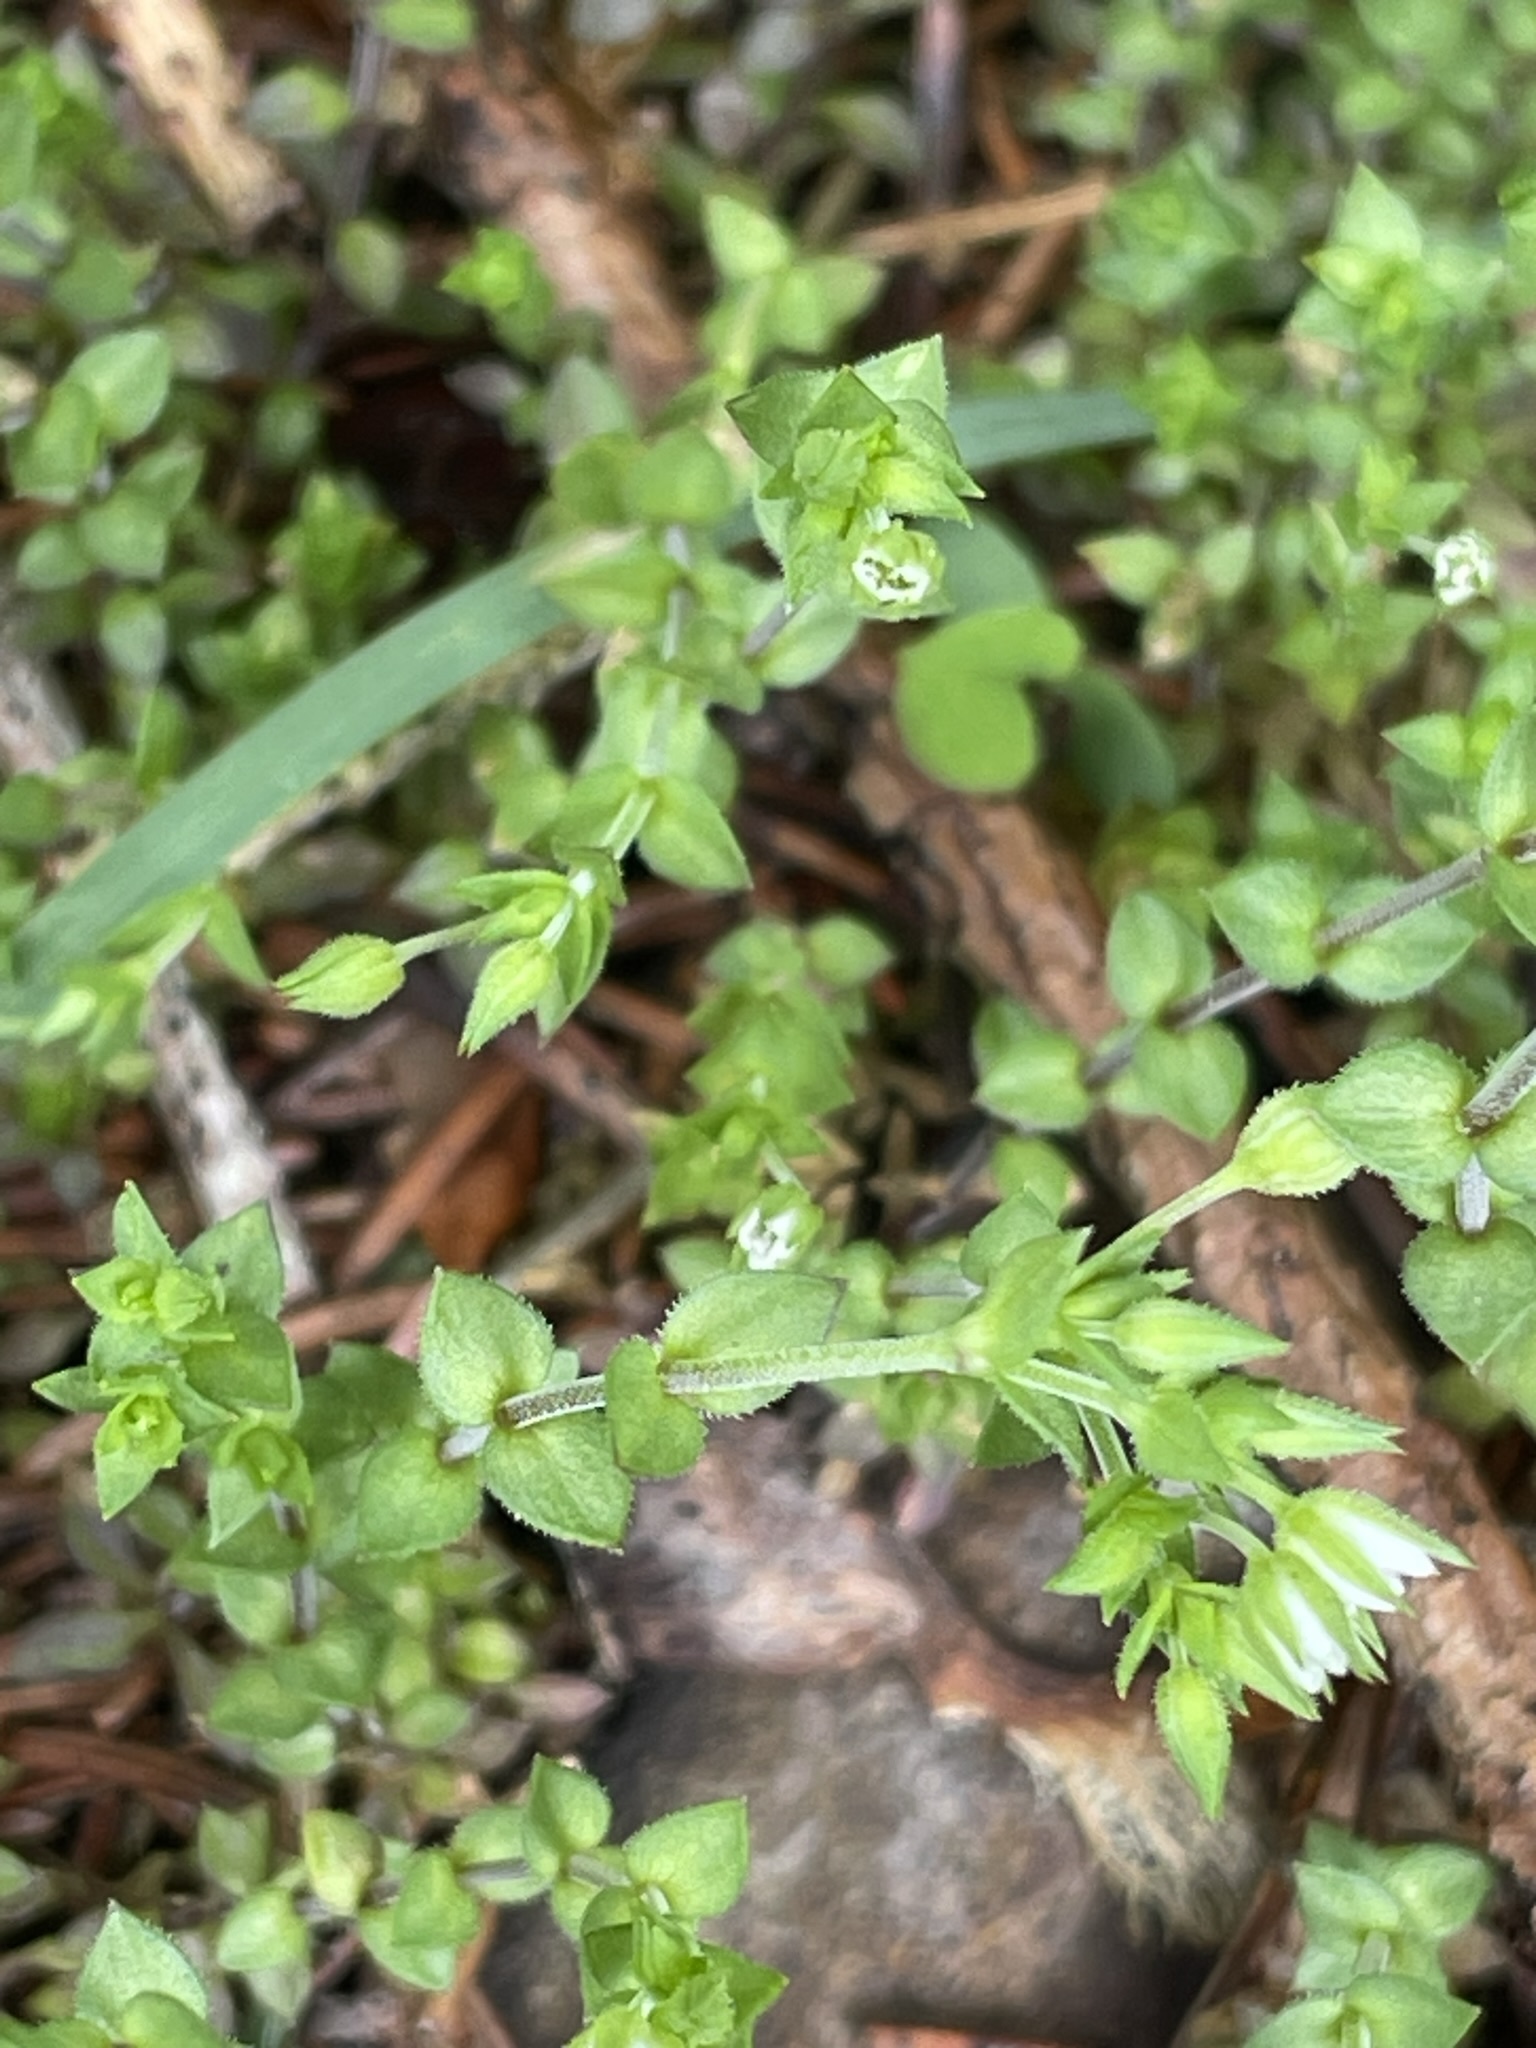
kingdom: Plantae
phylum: Tracheophyta
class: Magnoliopsida
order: Caryophyllales
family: Caryophyllaceae
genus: Arenaria
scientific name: Arenaria serpyllifolia
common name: Thyme-leaved sandwort
